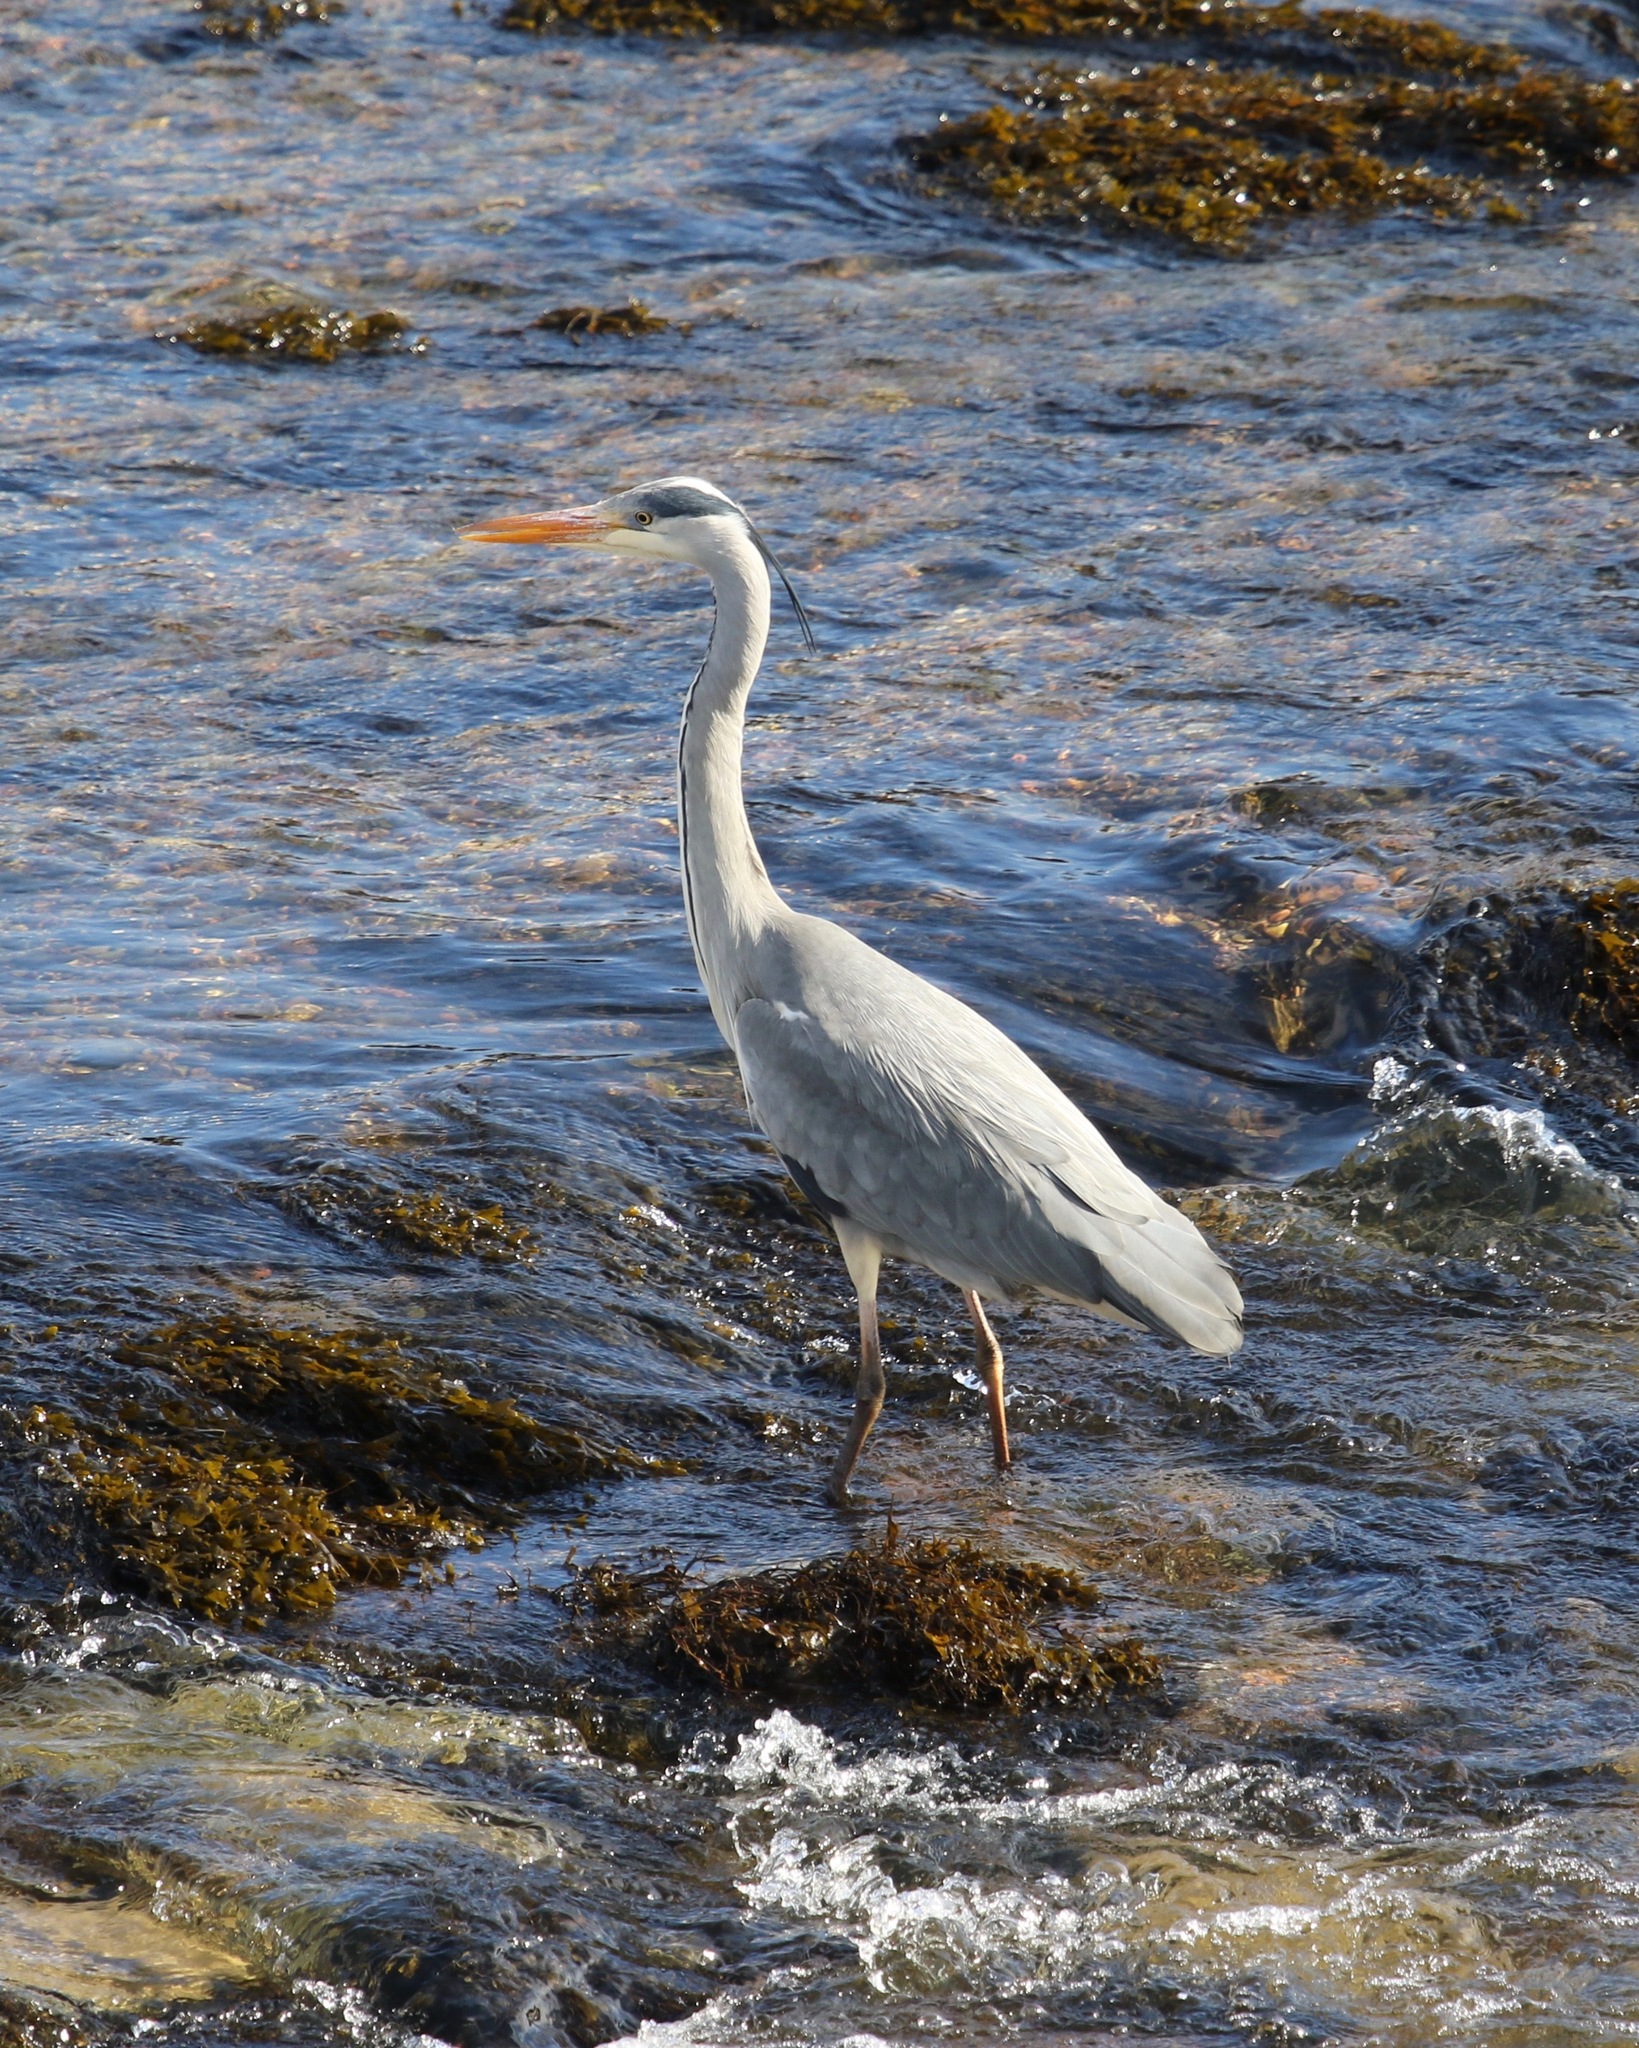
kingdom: Animalia
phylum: Chordata
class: Aves
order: Pelecaniformes
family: Ardeidae
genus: Ardea
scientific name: Ardea cinerea
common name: Grey heron
